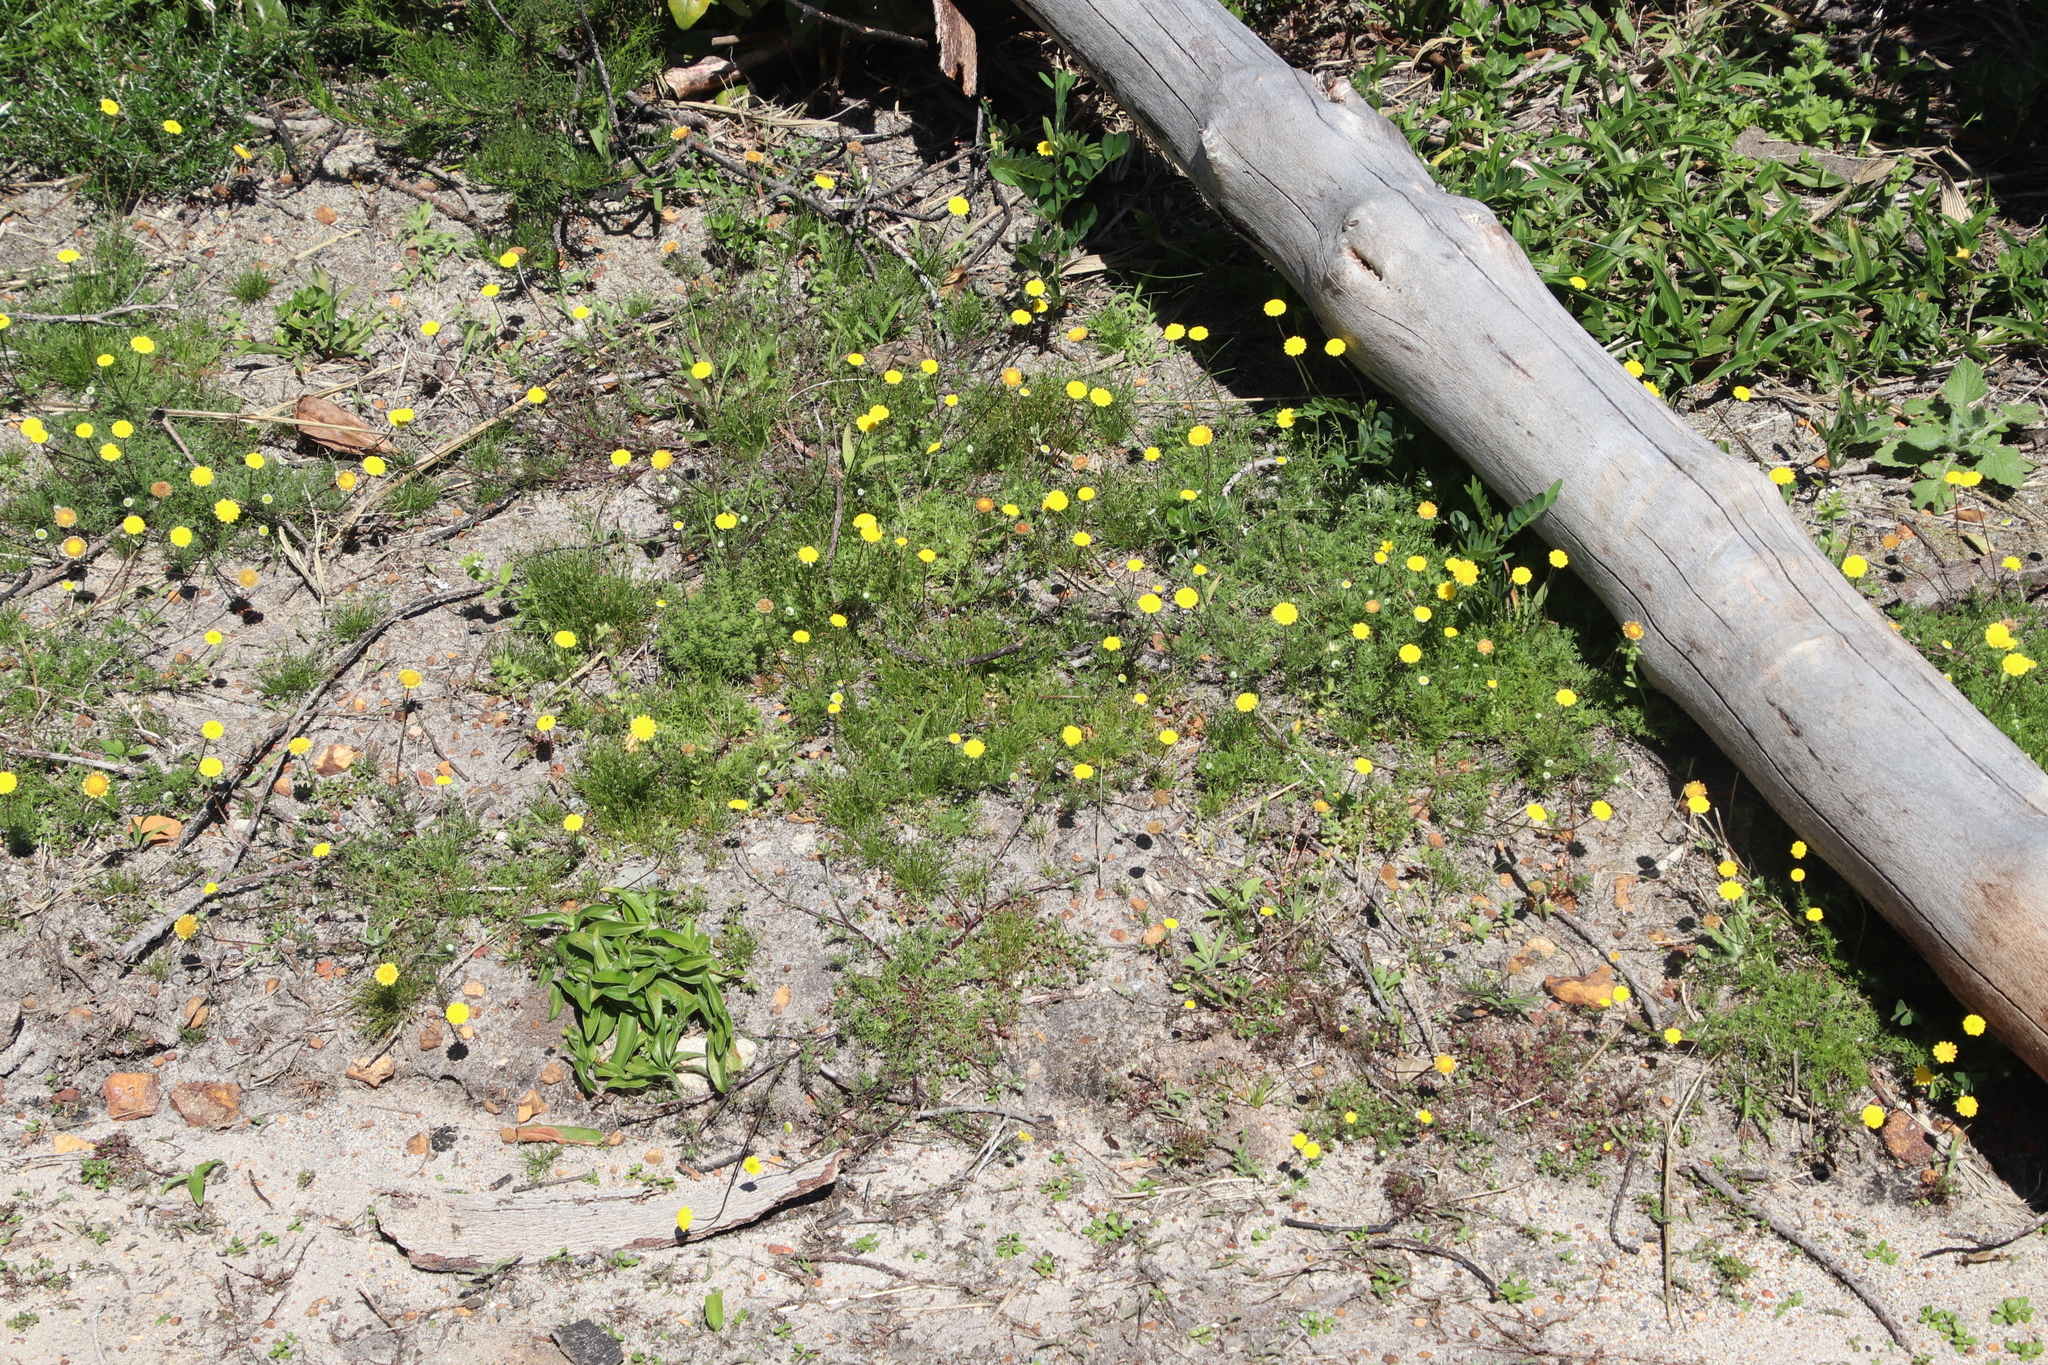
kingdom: Plantae
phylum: Tracheophyta
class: Magnoliopsida
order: Asterales
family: Asteraceae
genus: Cotula
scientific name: Cotula pruinosa
